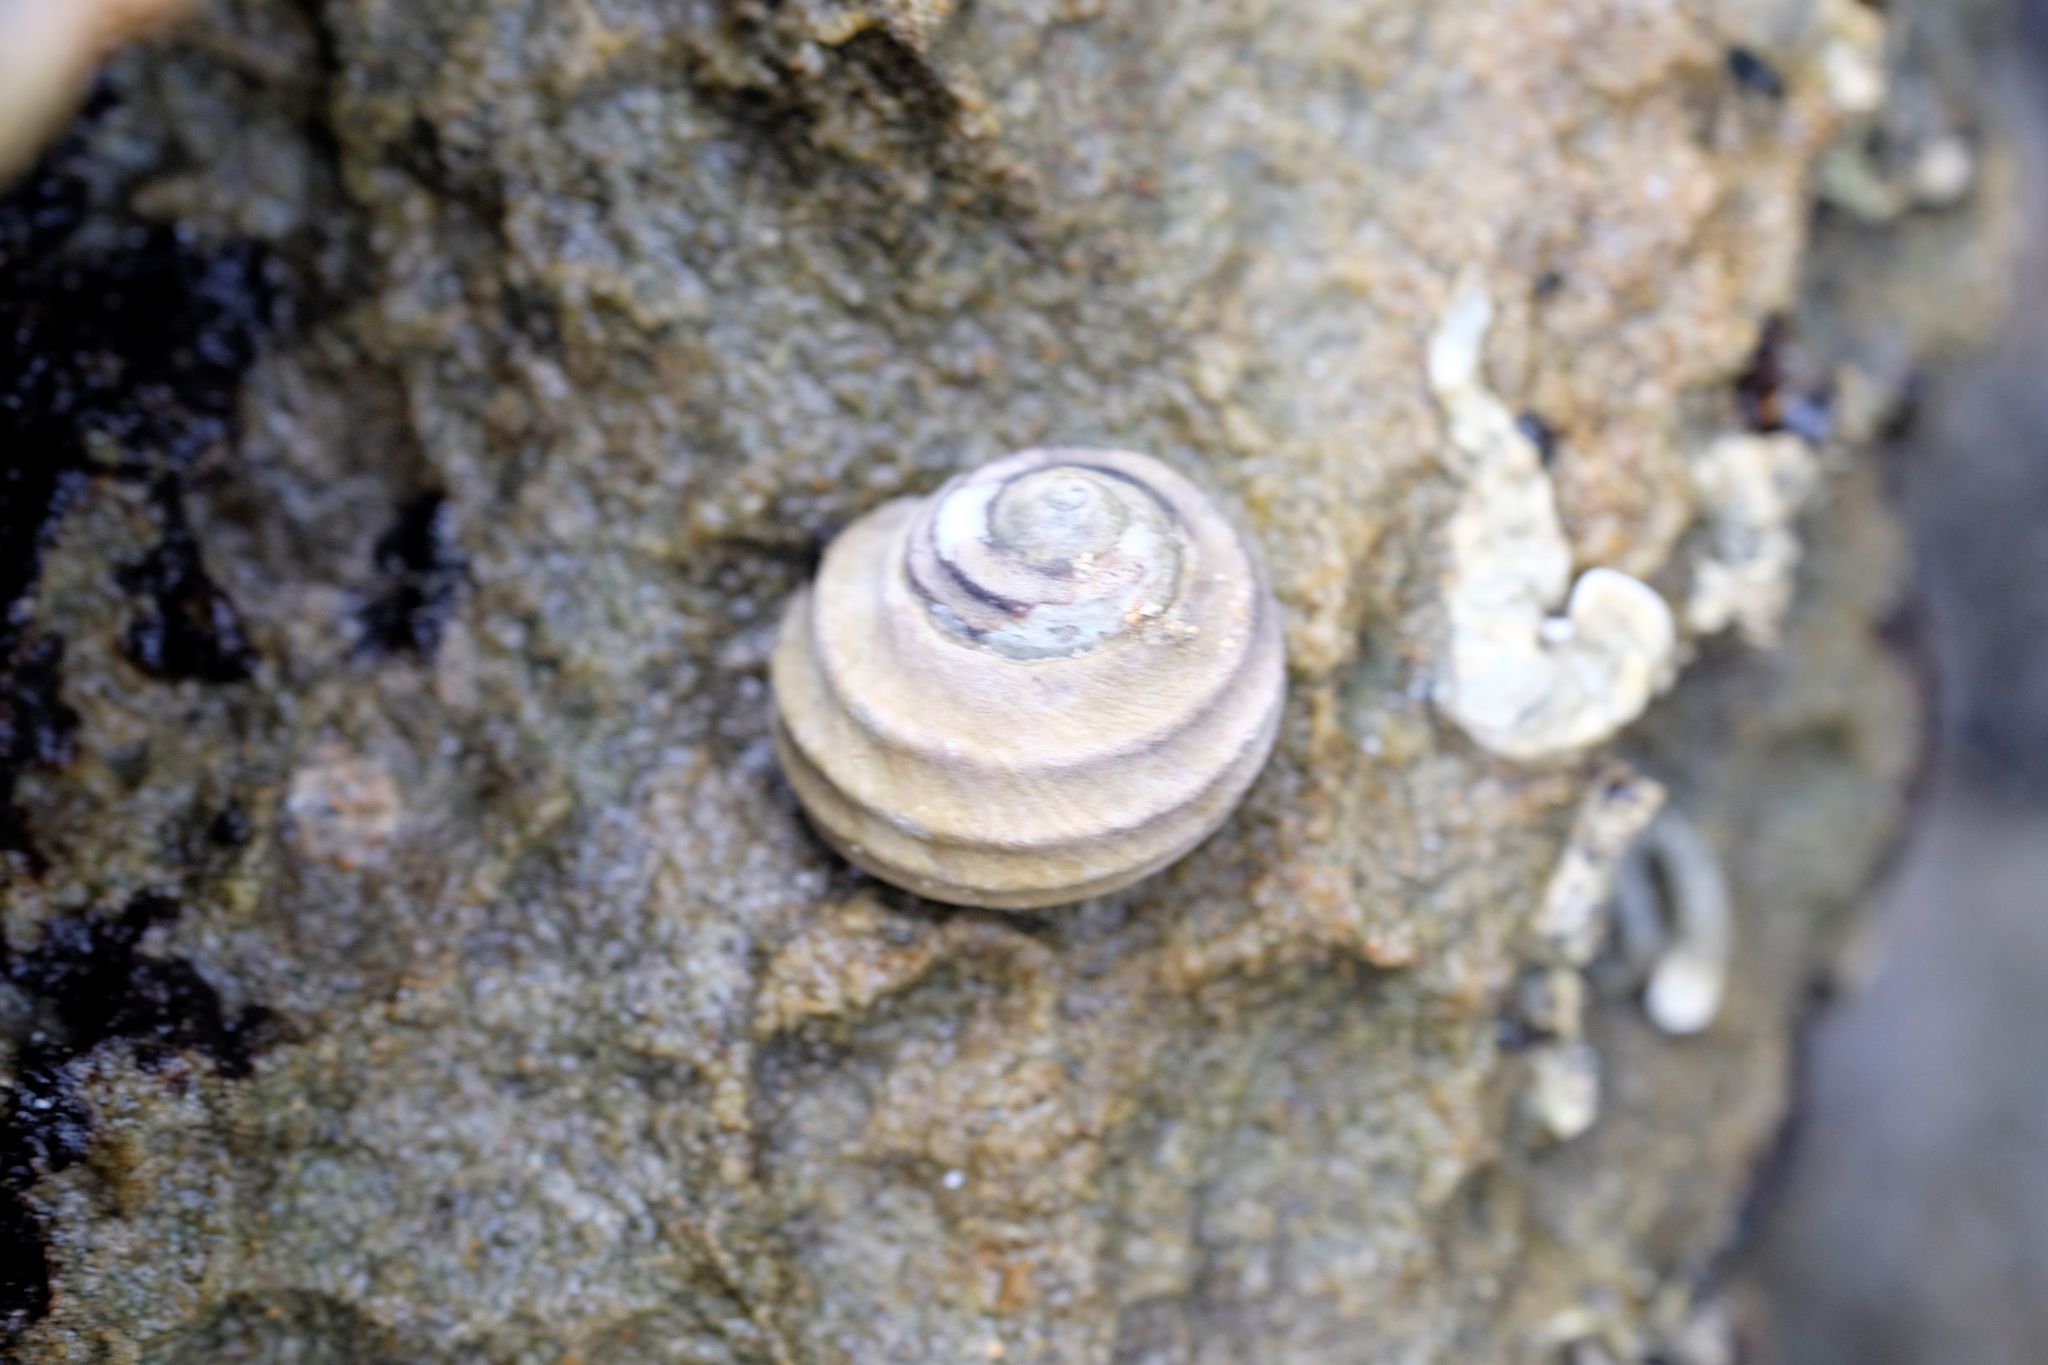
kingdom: Animalia
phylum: Mollusca
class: Gastropoda
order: Trochida
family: Trochidae
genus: Austrocochlea
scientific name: Austrocochlea constricta
